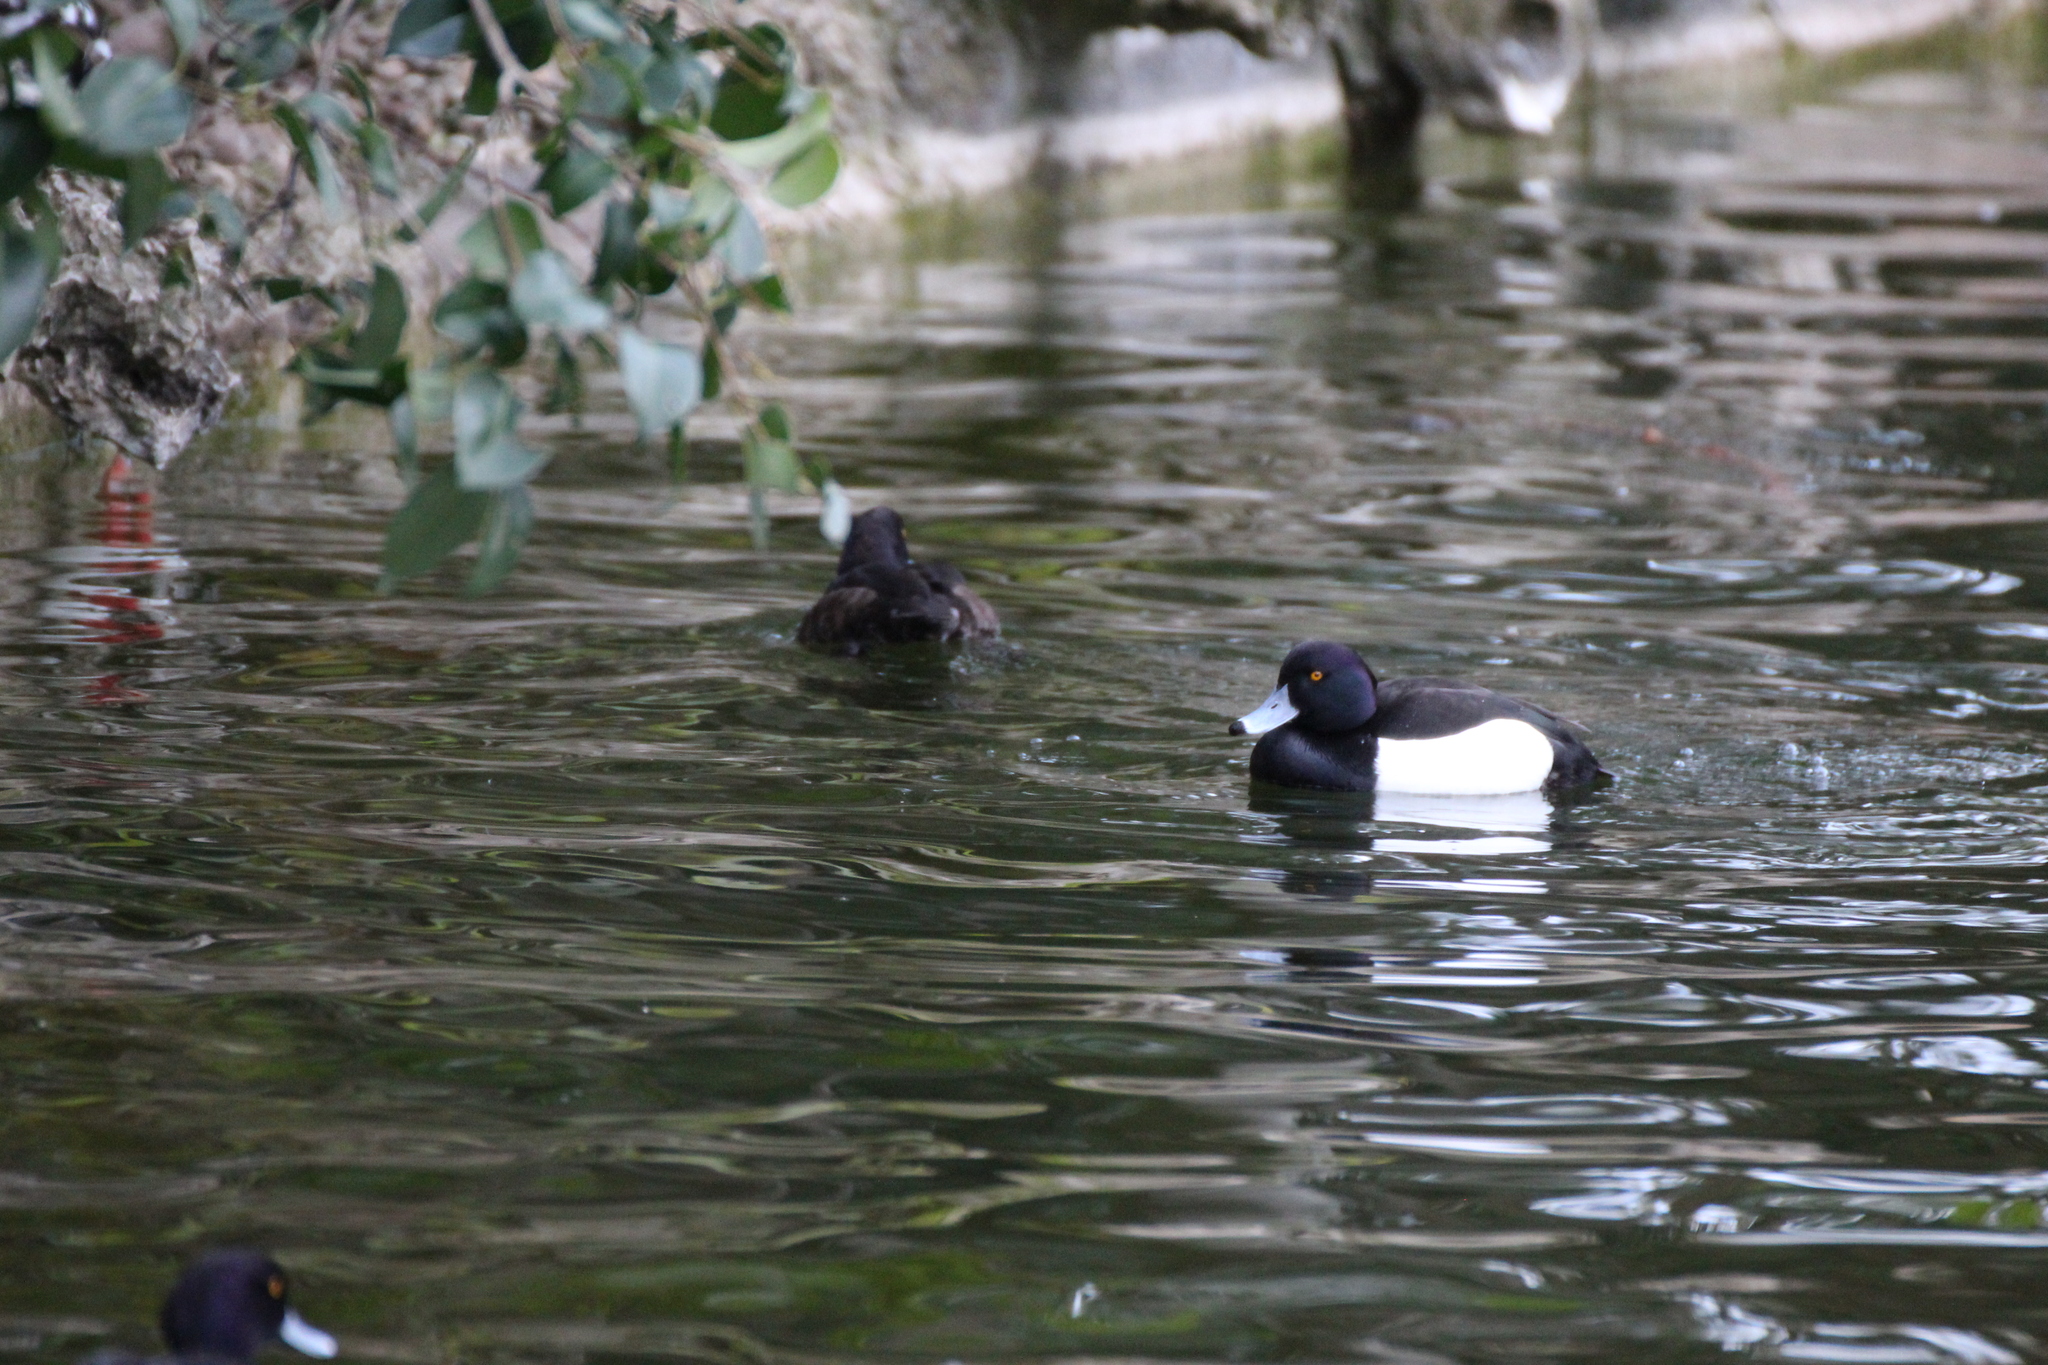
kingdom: Animalia
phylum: Chordata
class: Aves
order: Anseriformes
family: Anatidae
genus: Aythya
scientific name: Aythya fuligula
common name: Tufted duck
